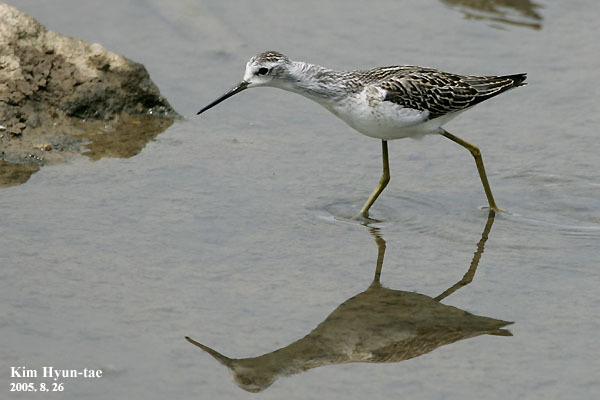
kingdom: Animalia
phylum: Chordata
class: Aves
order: Charadriiformes
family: Scolopacidae
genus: Tringa
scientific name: Tringa stagnatilis
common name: Marsh sandpiper
